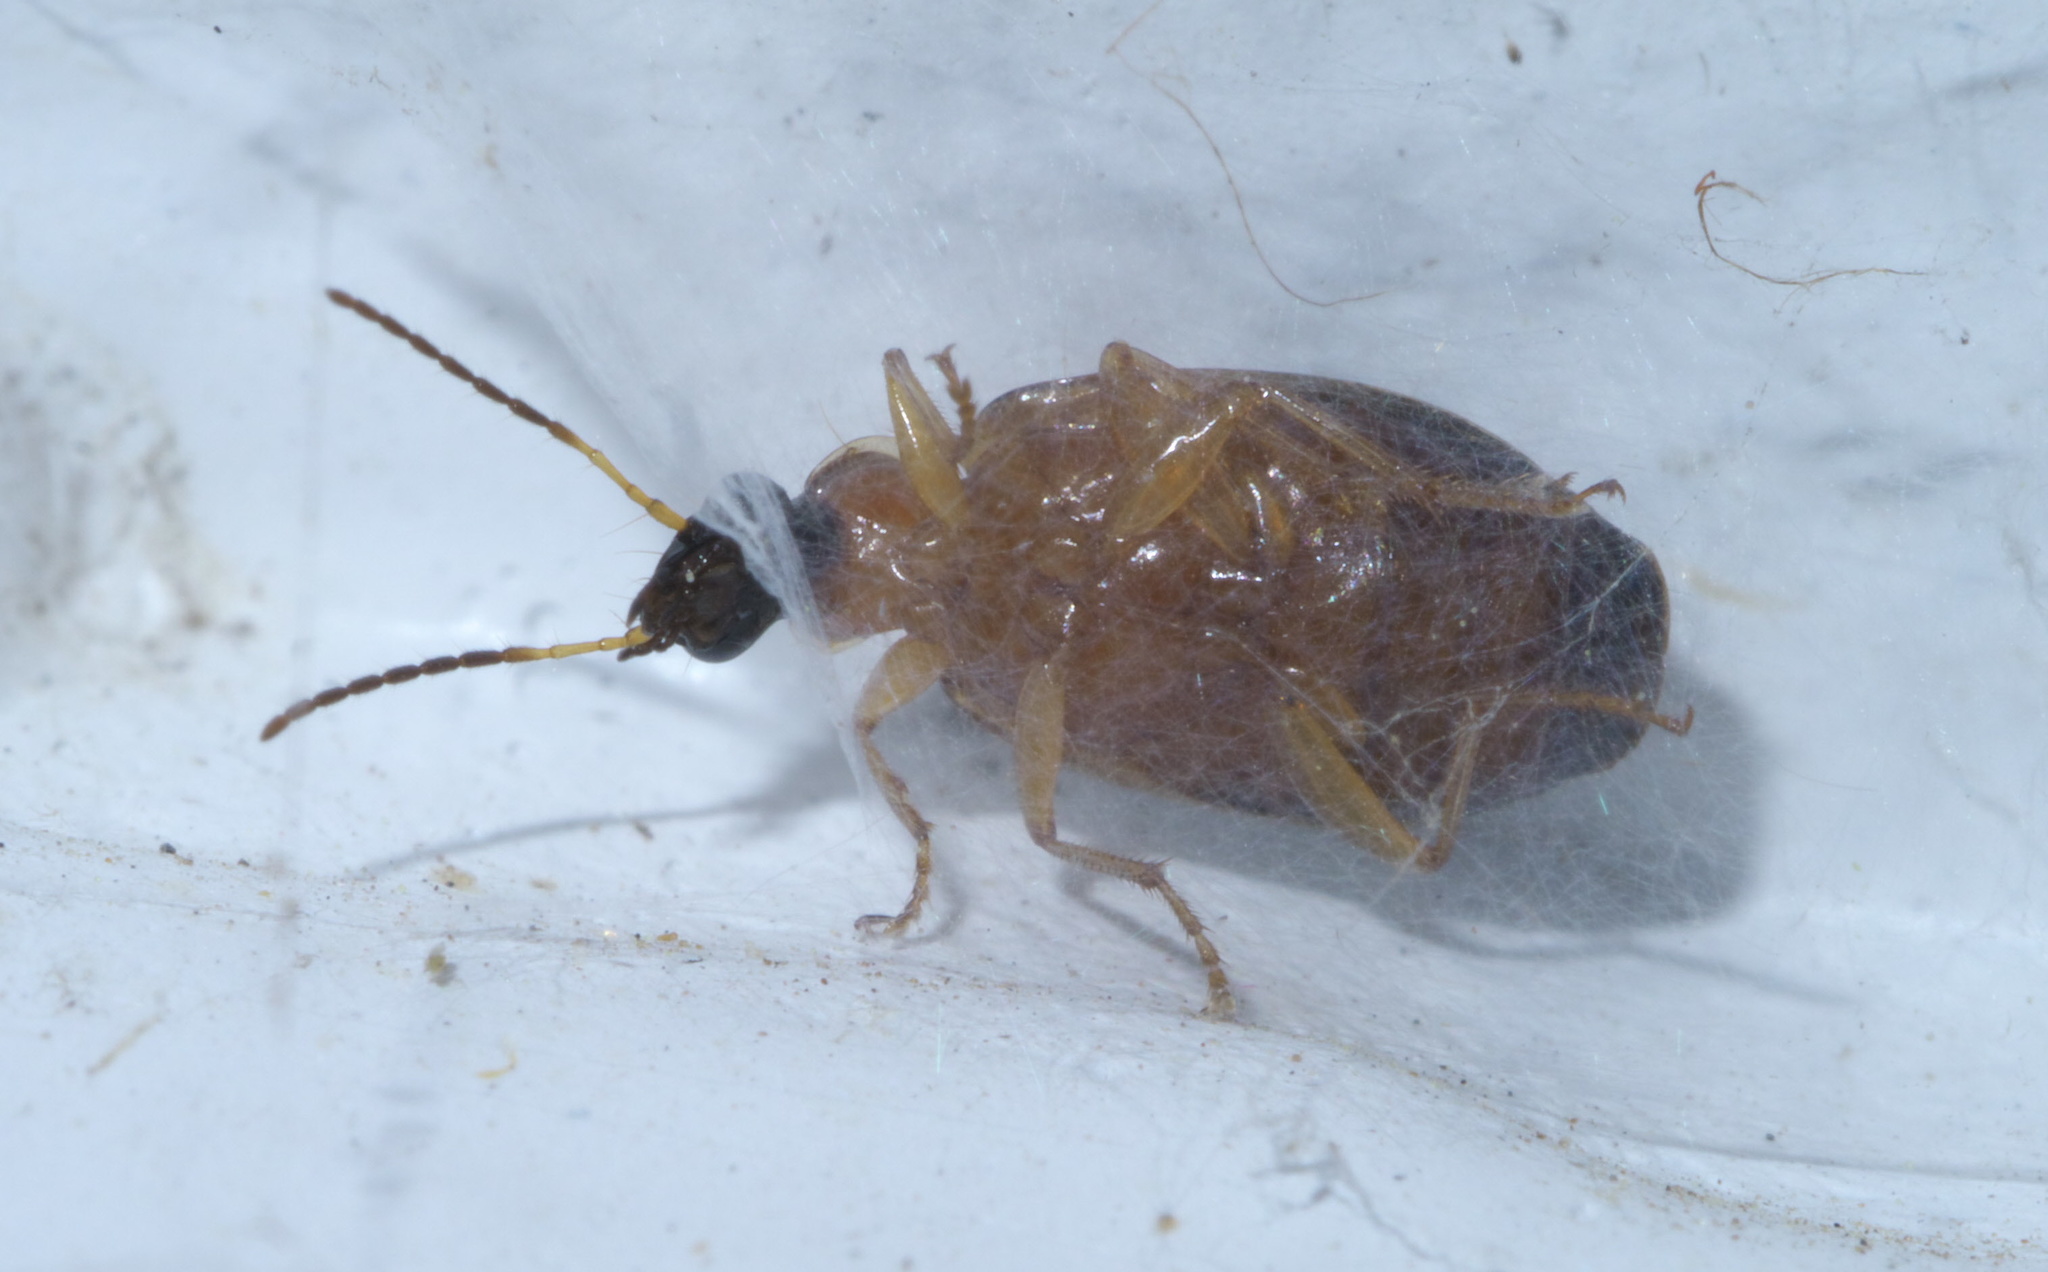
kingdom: Animalia
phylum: Arthropoda
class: Insecta
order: Coleoptera
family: Carabidae
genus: Lebia
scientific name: Lebia analis
